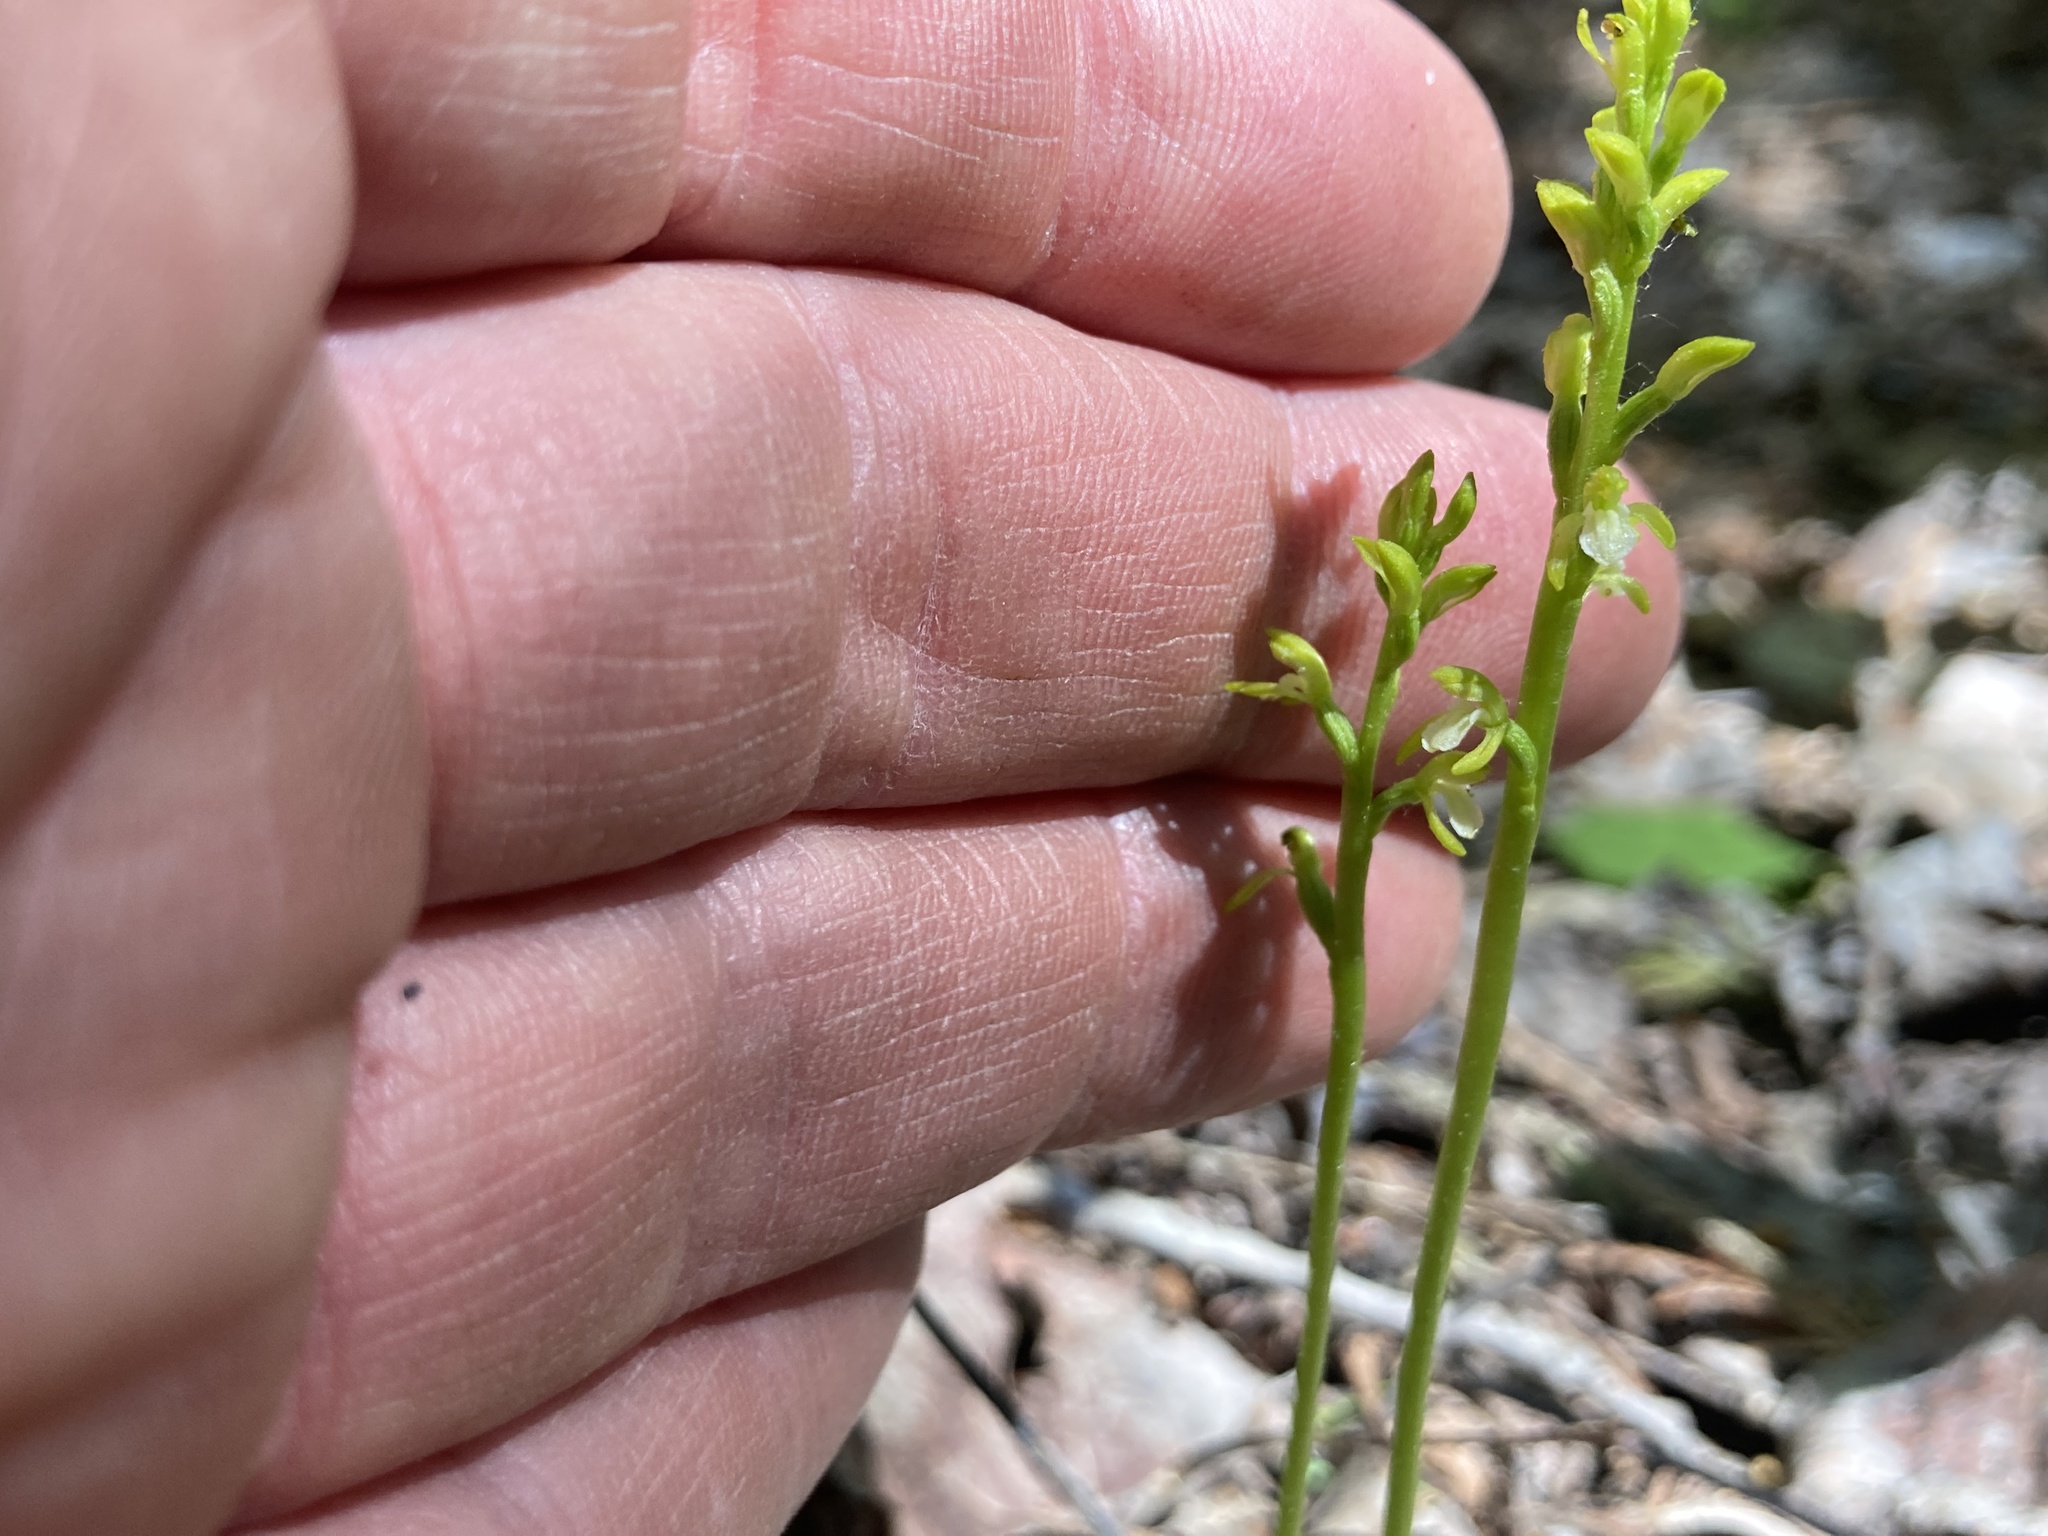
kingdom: Plantae
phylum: Tracheophyta
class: Liliopsida
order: Asparagales
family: Orchidaceae
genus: Corallorhiza
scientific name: Corallorhiza trifida
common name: Yellow coralroot
